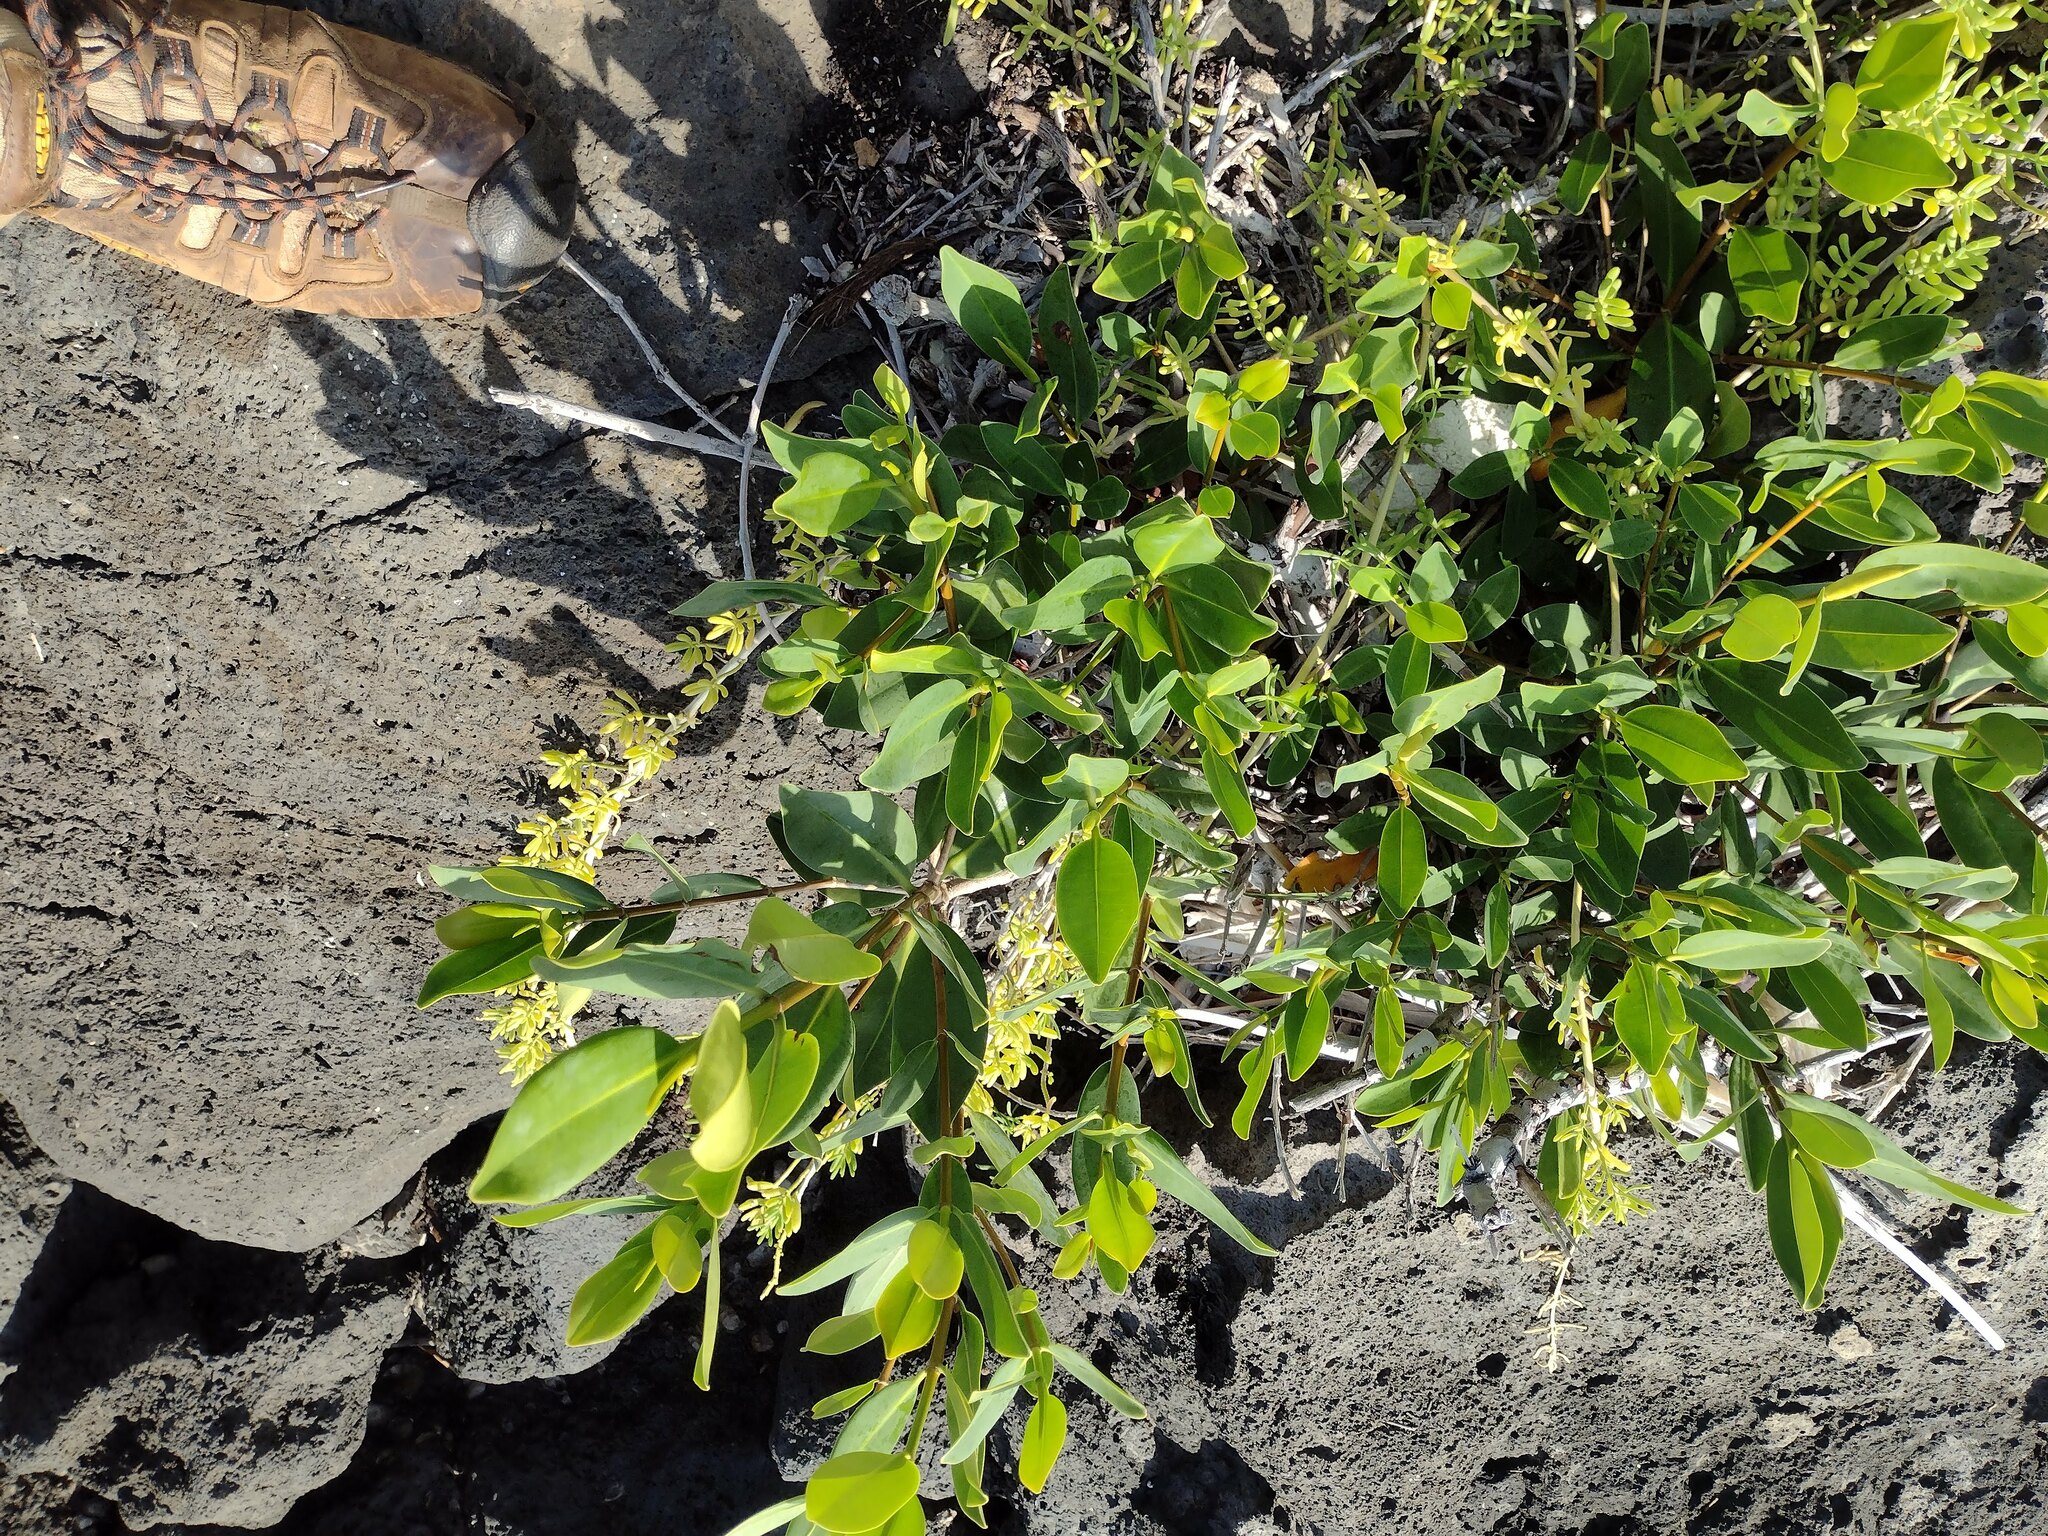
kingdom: Plantae
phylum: Tracheophyta
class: Magnoliopsida
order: Malpighiales
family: Rhizophoraceae
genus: Rhizophora
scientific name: Rhizophora mangle
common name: Red mangrove
